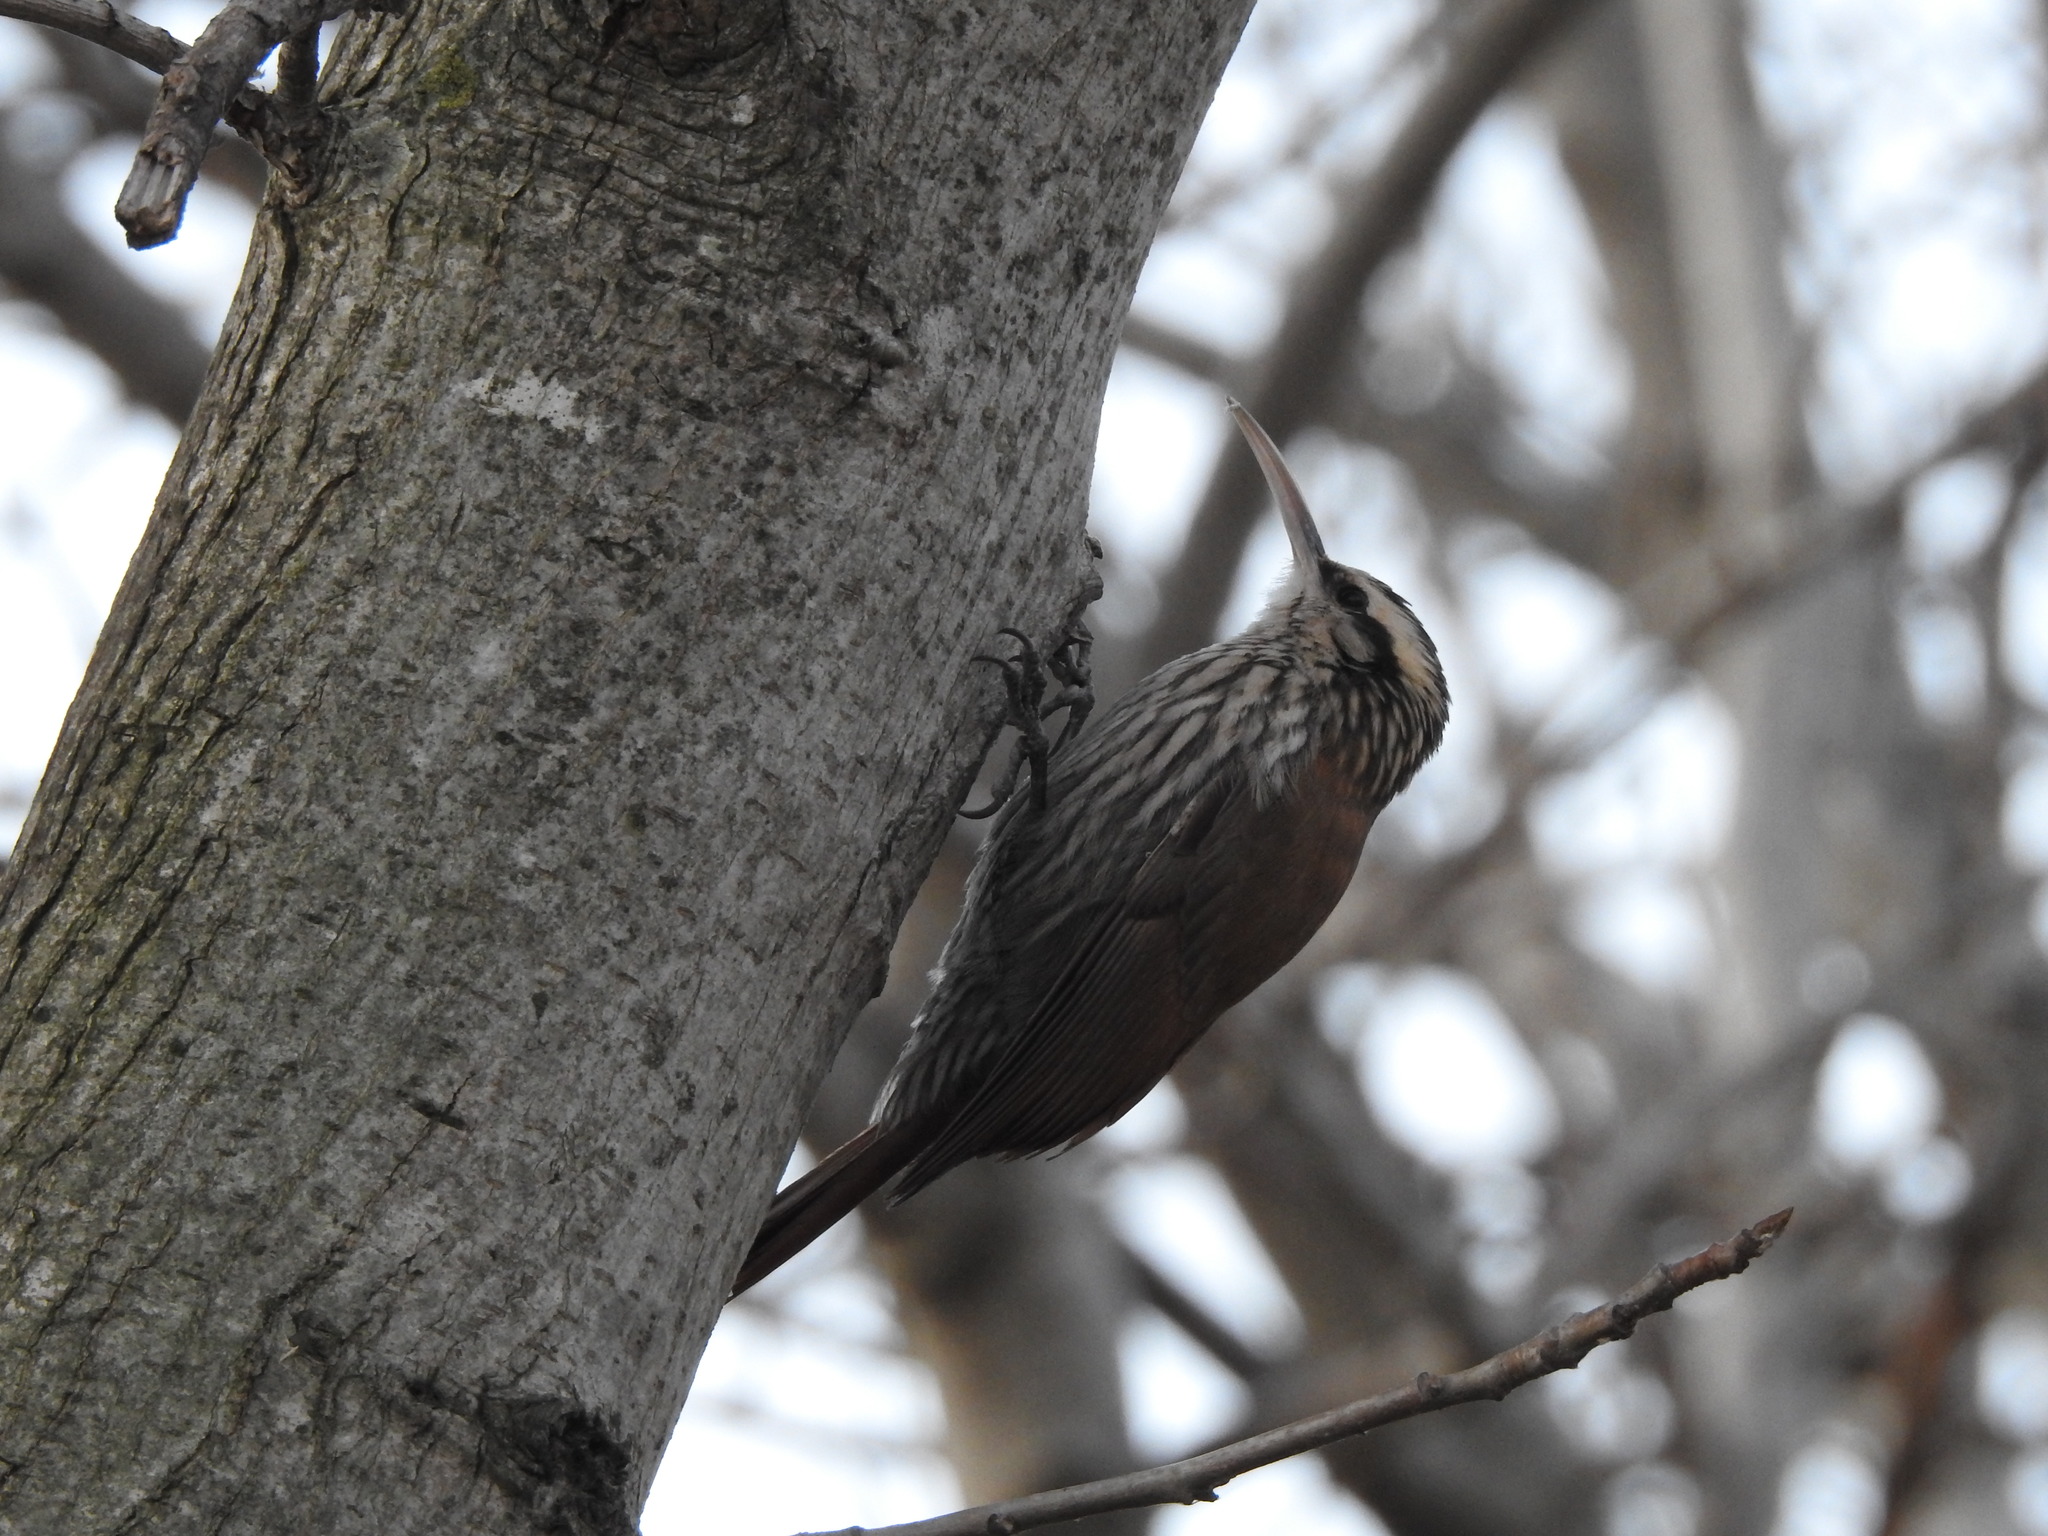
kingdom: Animalia
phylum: Chordata
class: Aves
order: Passeriformes
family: Furnariidae
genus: Lepidocolaptes
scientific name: Lepidocolaptes angustirostris
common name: Narrow-billed woodcreeper
